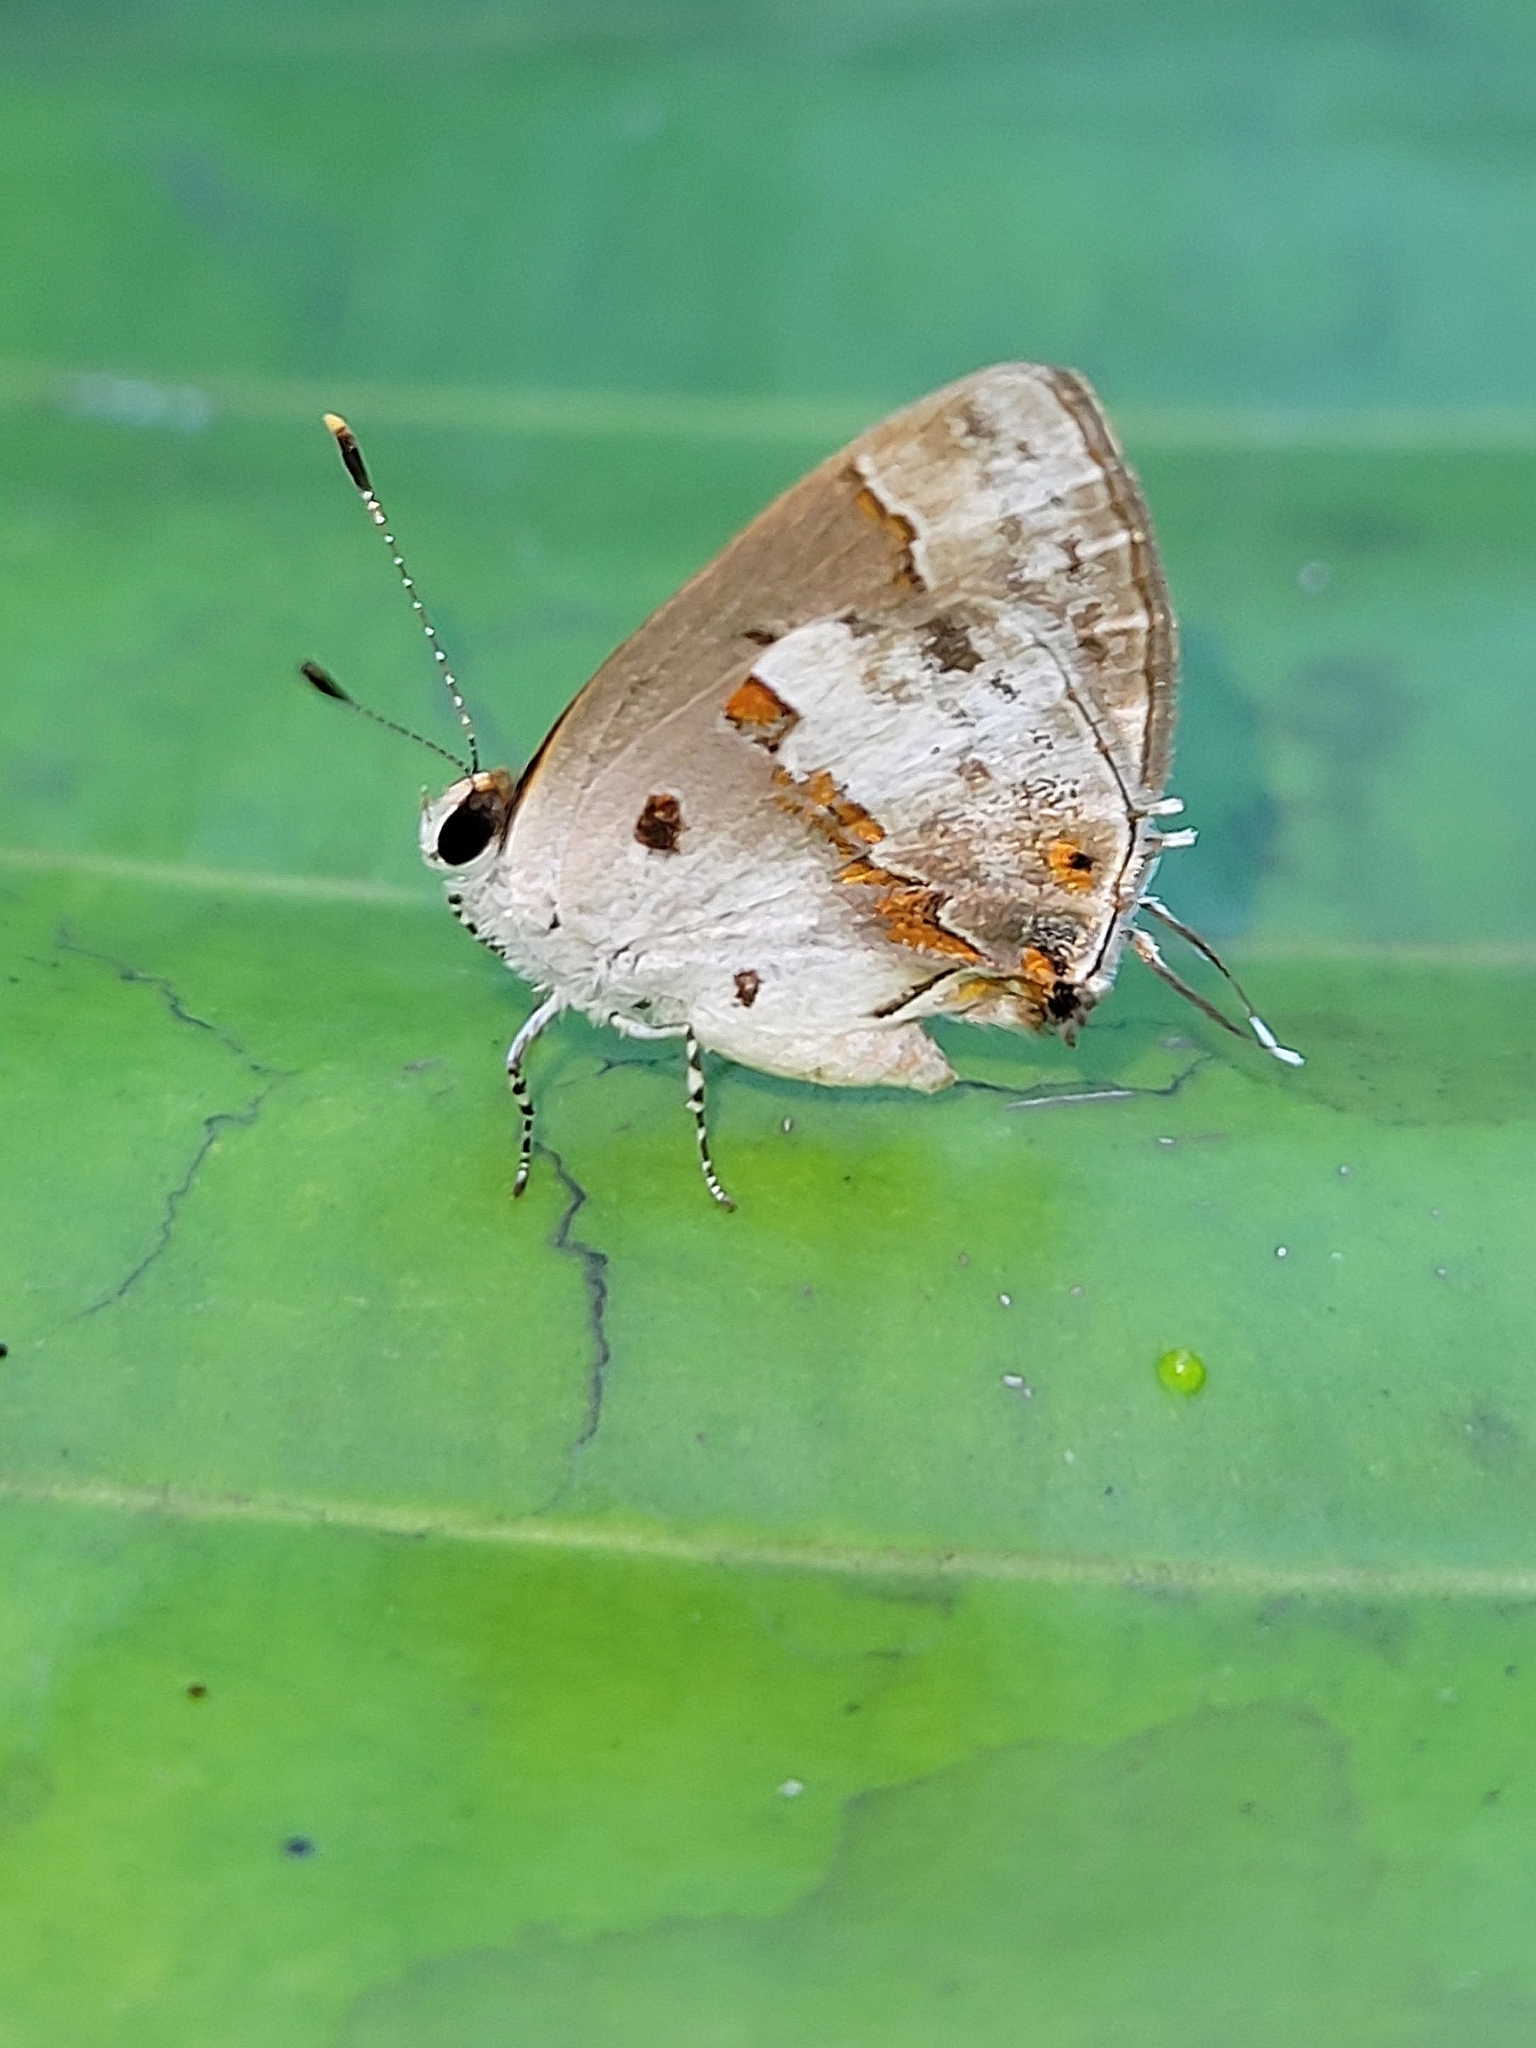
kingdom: Animalia
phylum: Arthropoda
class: Insecta
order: Lepidoptera
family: Lycaenidae
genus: Thecla
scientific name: Thecla zilda
